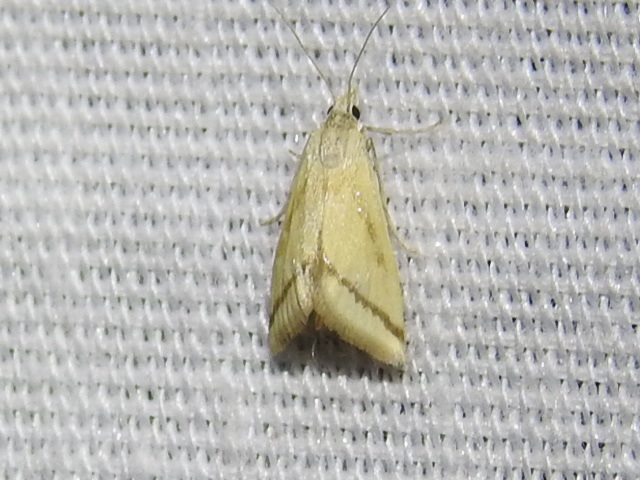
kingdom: Animalia
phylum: Arthropoda
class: Insecta
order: Lepidoptera
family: Crambidae
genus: Microtheoris
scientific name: Microtheoris vibicalis
